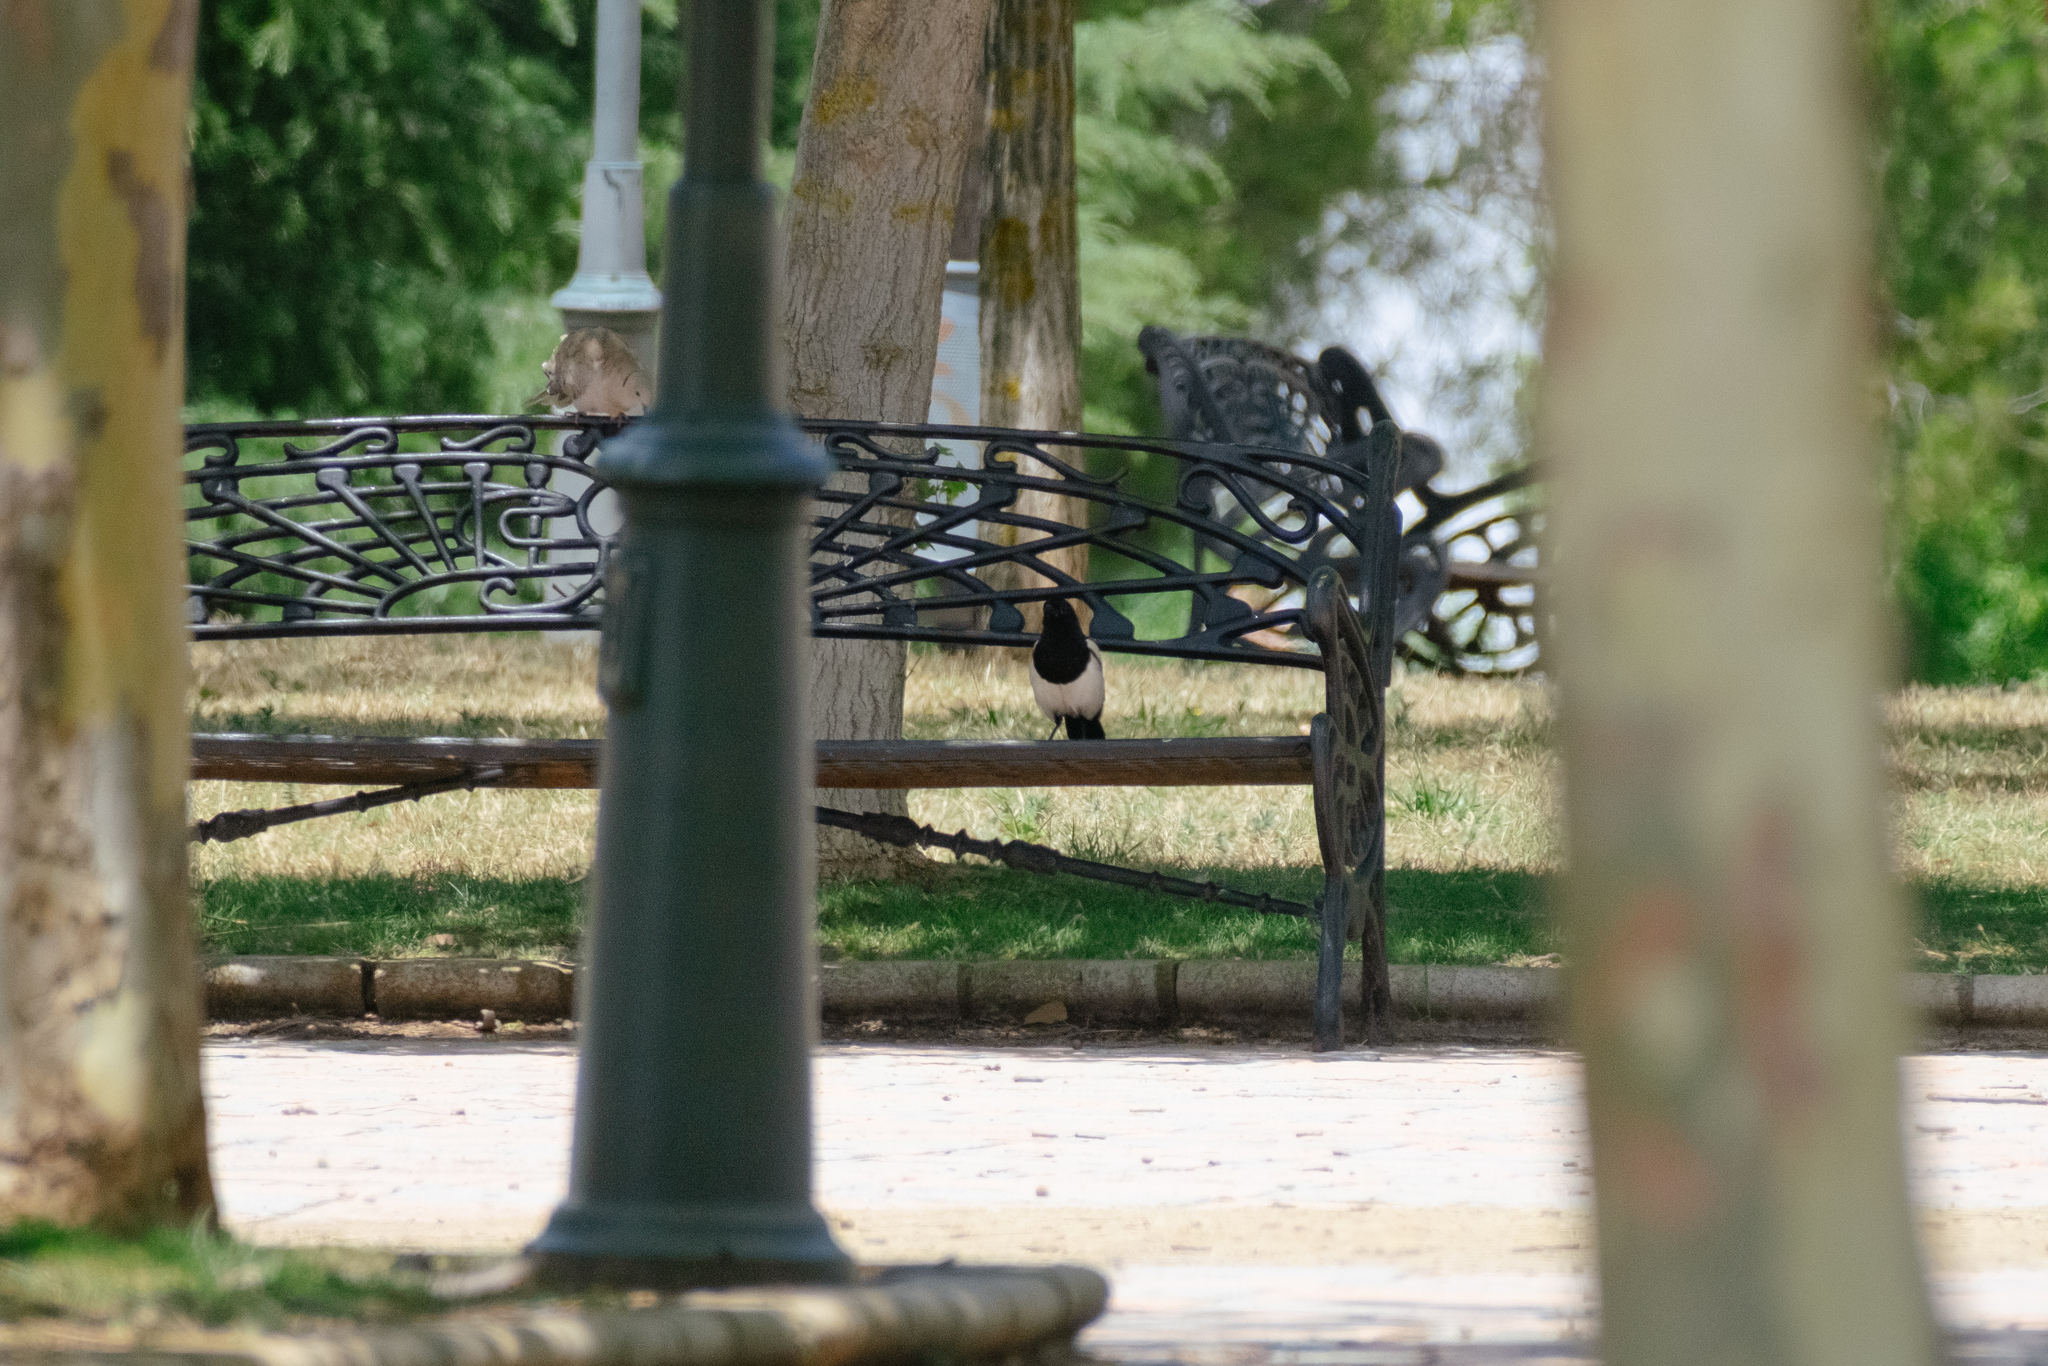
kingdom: Animalia
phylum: Chordata
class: Aves
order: Passeriformes
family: Corvidae
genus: Pica
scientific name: Pica pica
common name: Eurasian magpie
